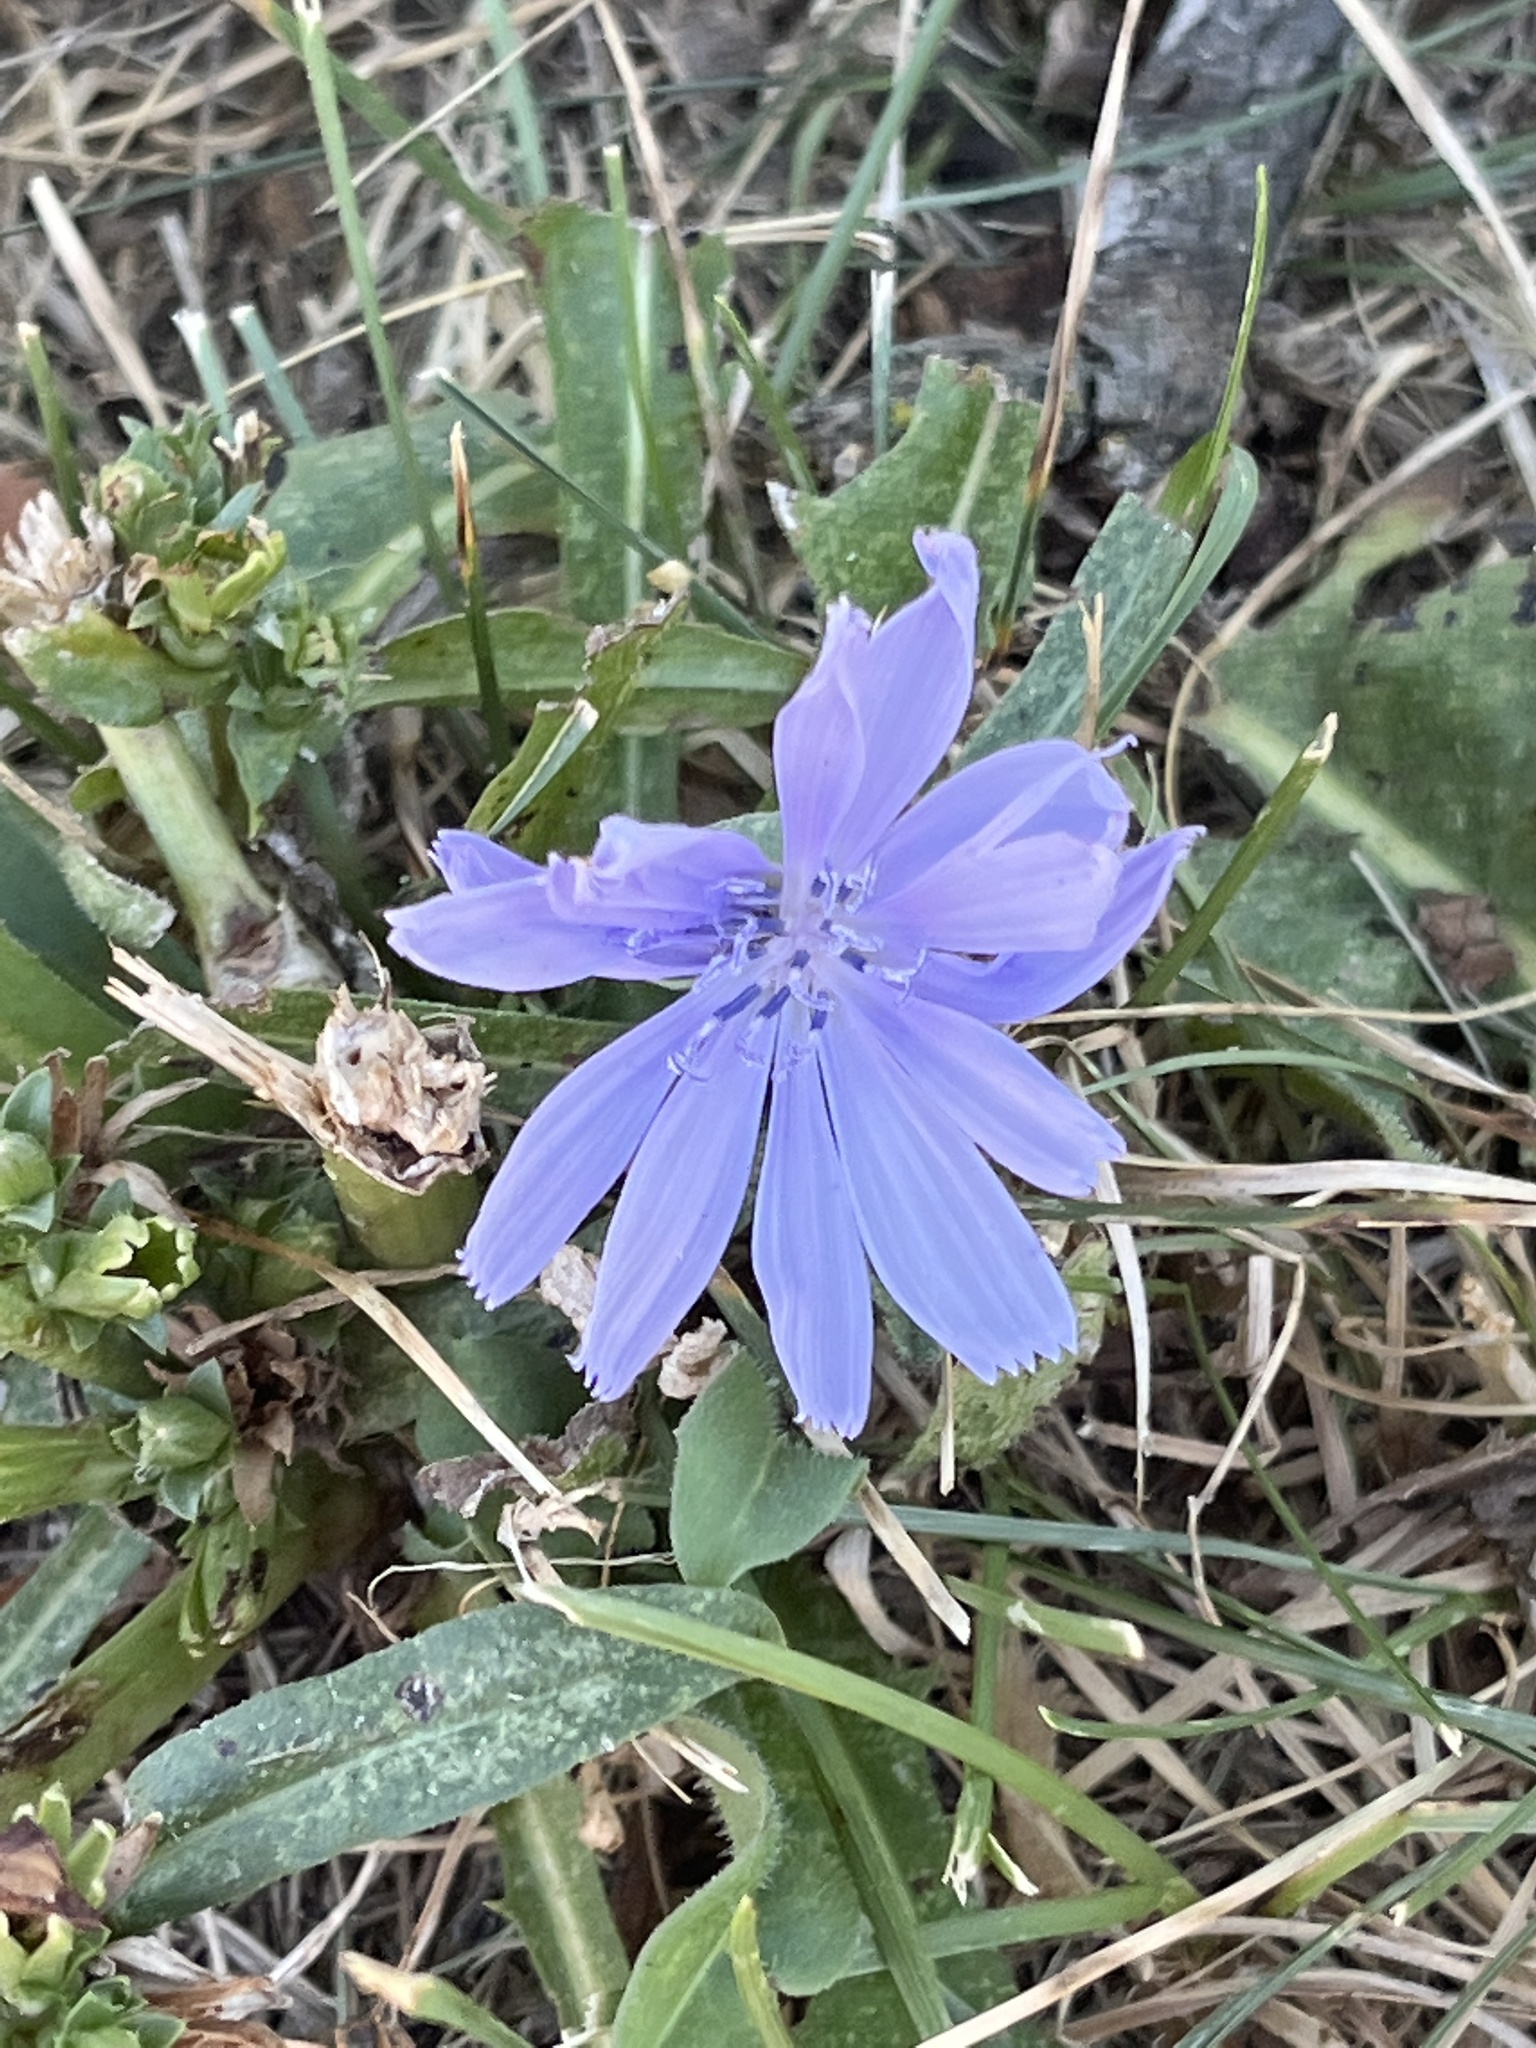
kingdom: Plantae
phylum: Tracheophyta
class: Magnoliopsida
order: Asterales
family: Asteraceae
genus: Cichorium
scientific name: Cichorium intybus
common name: Chicory
